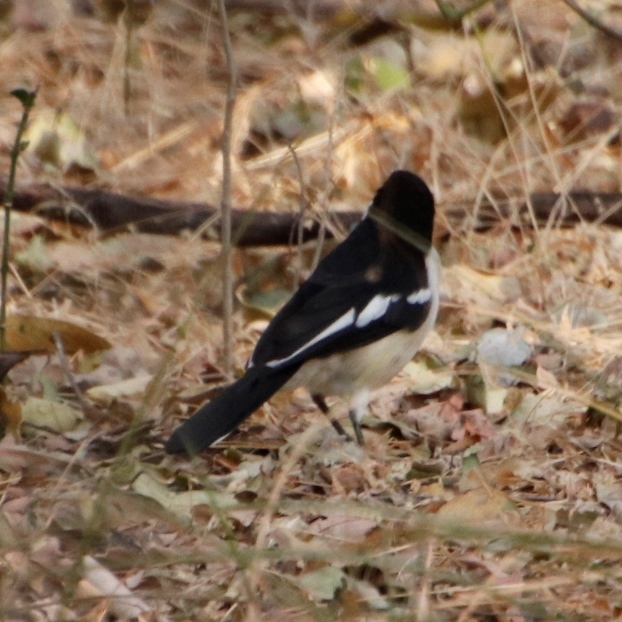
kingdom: Animalia
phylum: Chordata
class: Aves
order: Passeriformes
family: Malaconotidae
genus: Laniarius
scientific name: Laniarius bicolor
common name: Swamp boubou
